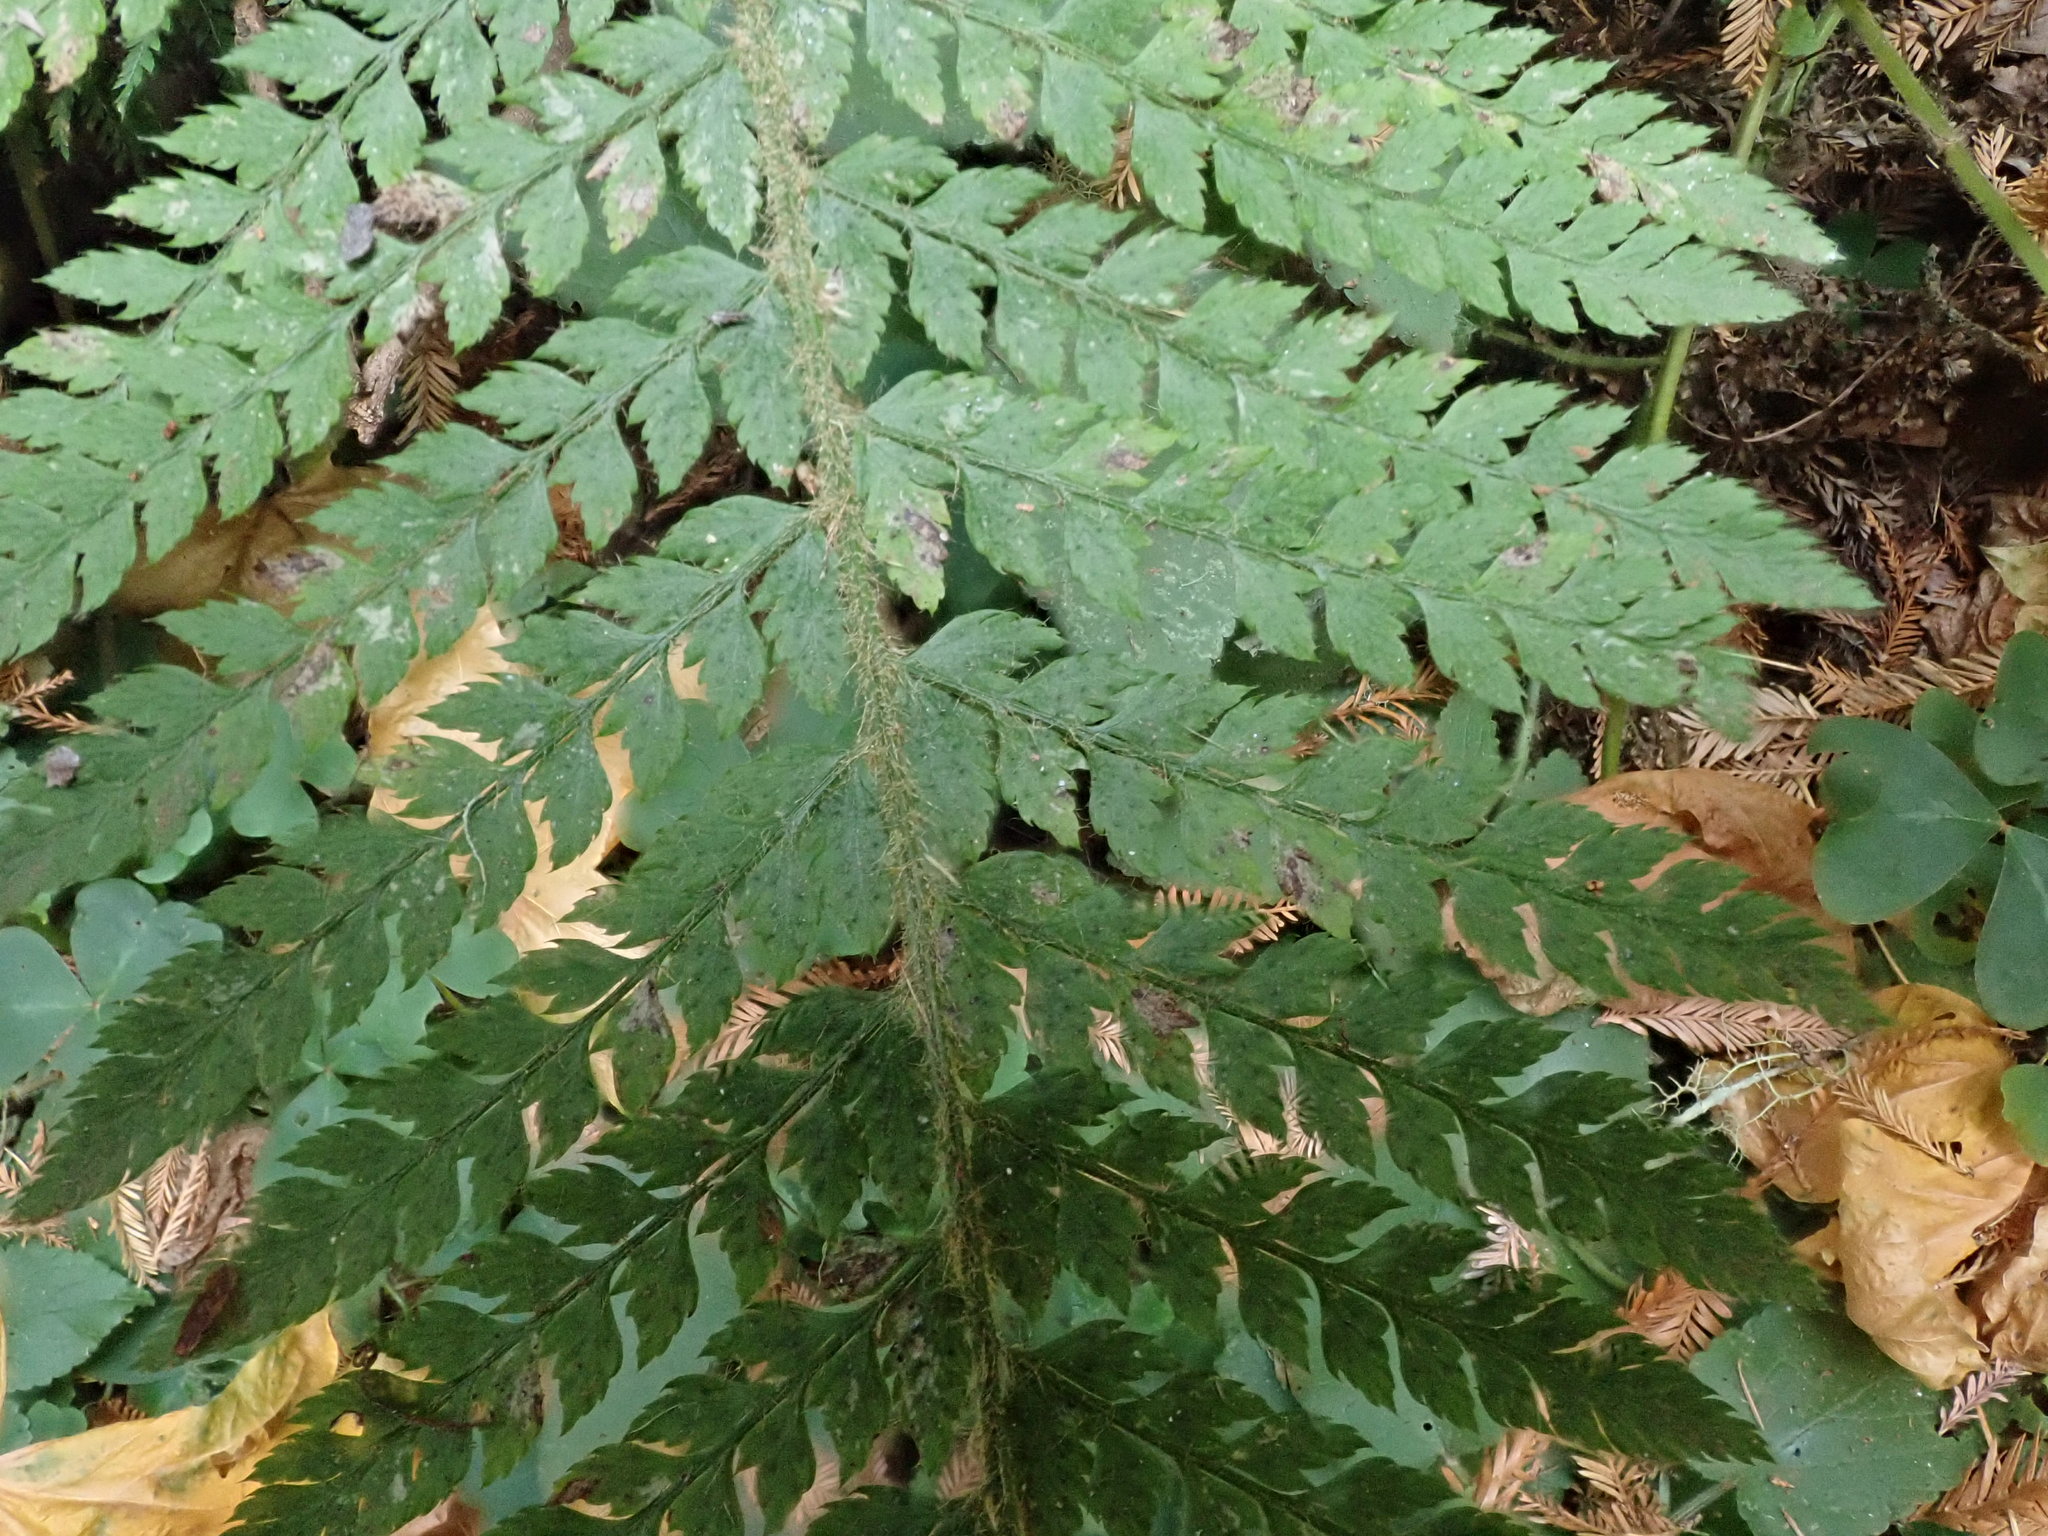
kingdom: Plantae
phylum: Tracheophyta
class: Polypodiopsida
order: Polypodiales
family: Dryopteridaceae
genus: Polystichum
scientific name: Polystichum dudleyi
